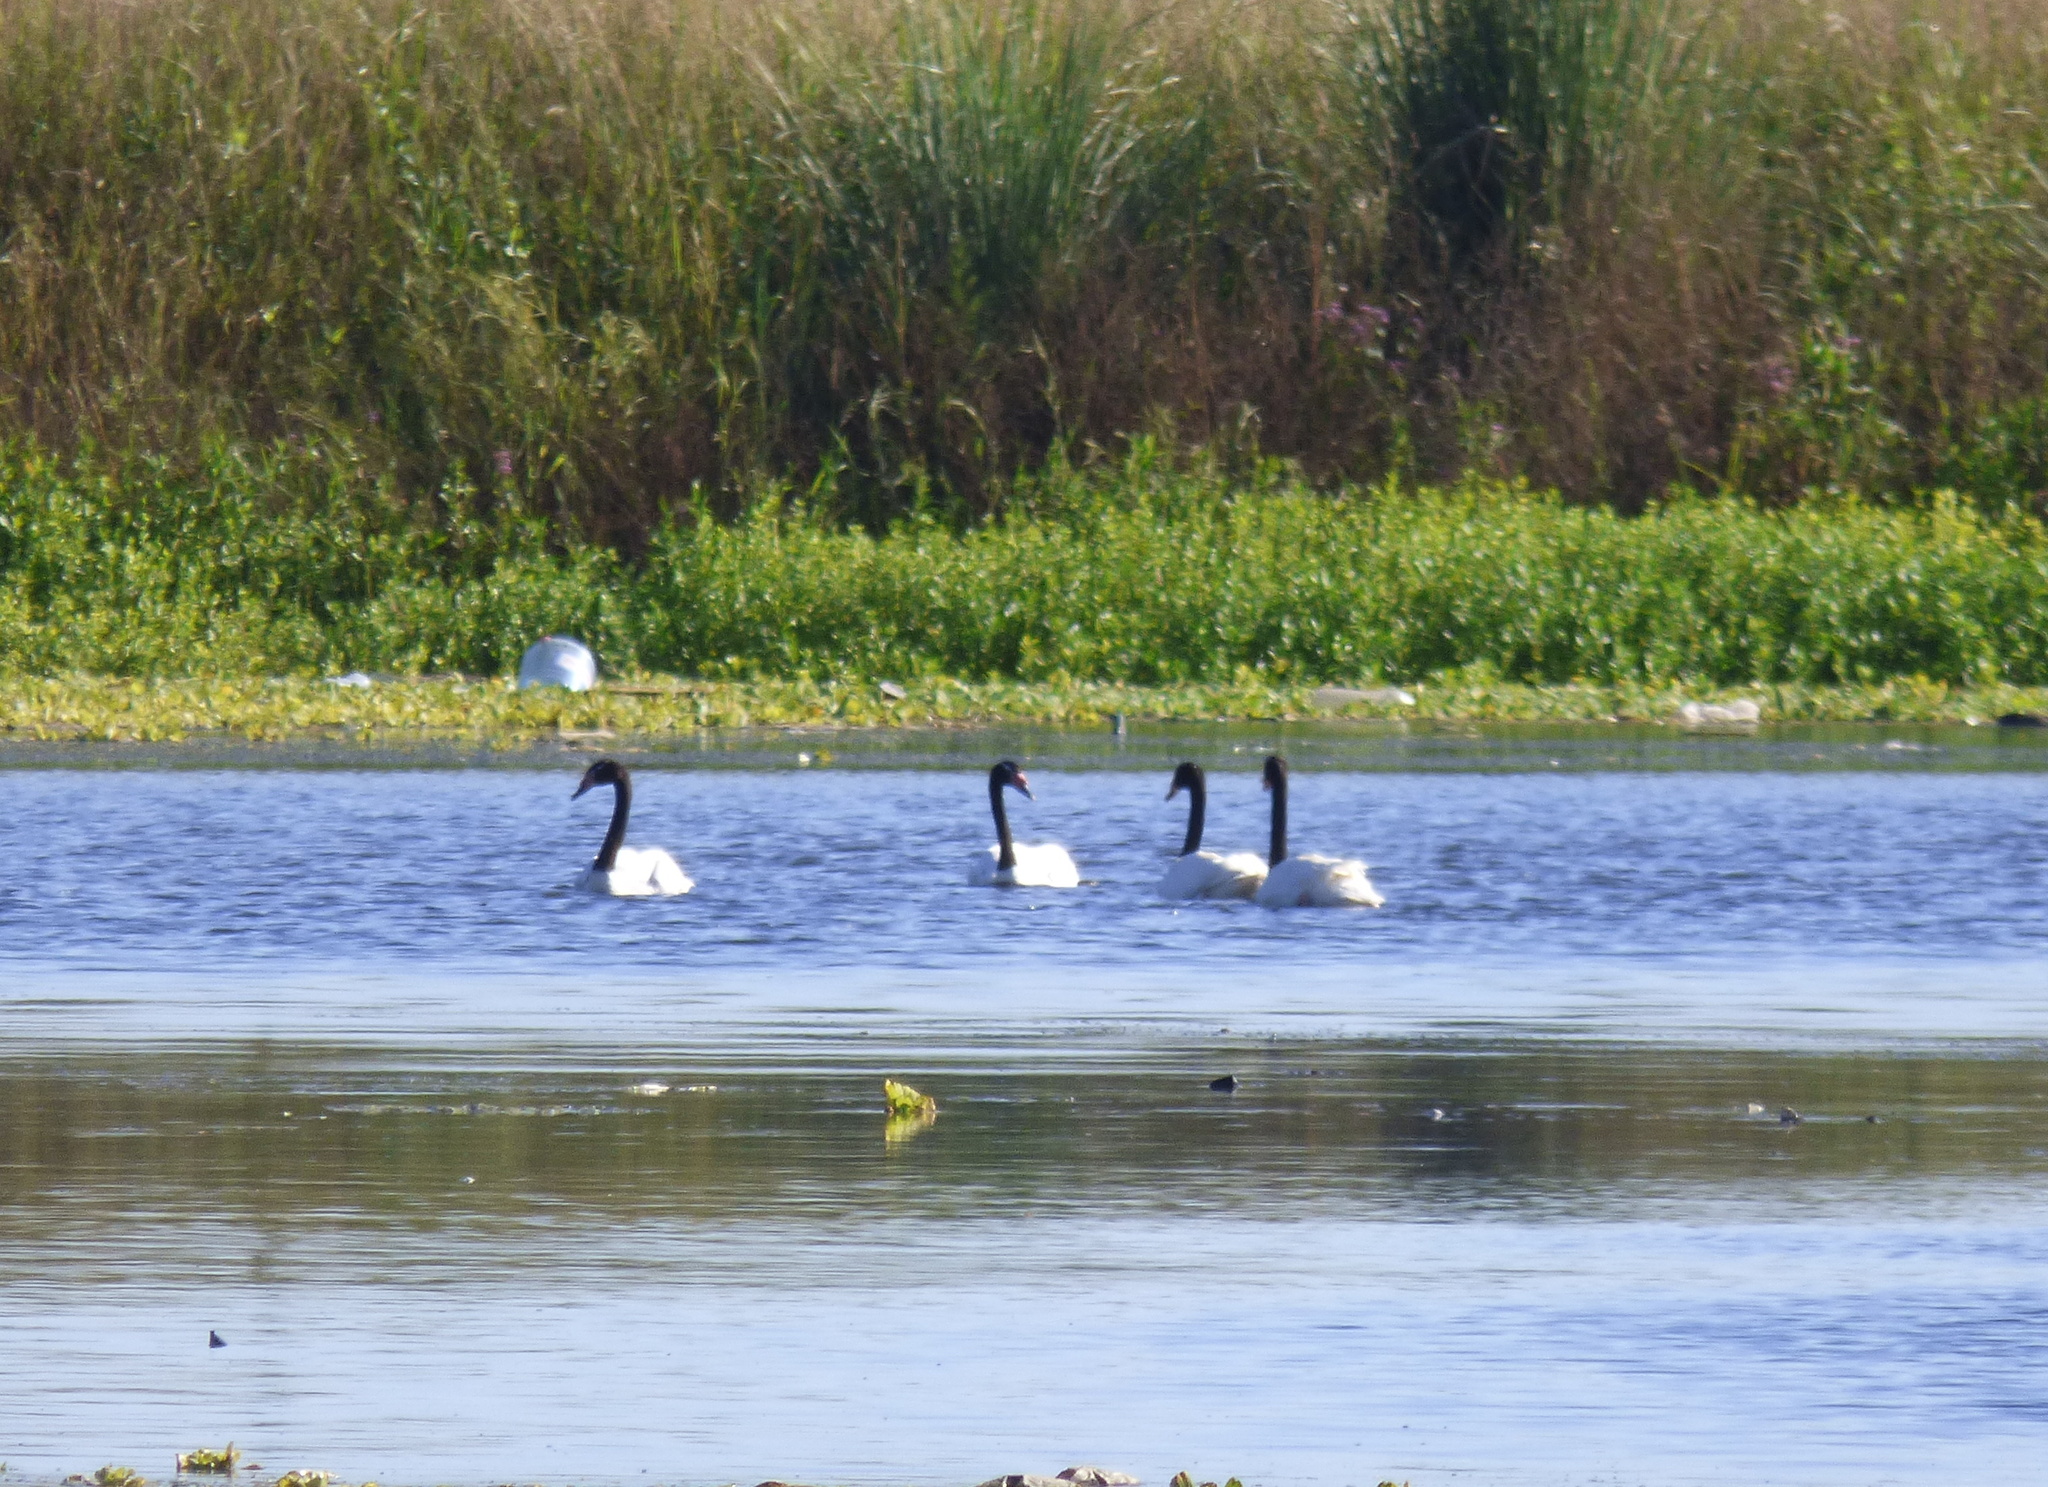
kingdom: Animalia
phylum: Chordata
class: Aves
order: Anseriformes
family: Anatidae
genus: Cygnus
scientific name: Cygnus melancoryphus
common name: Black-necked swan
